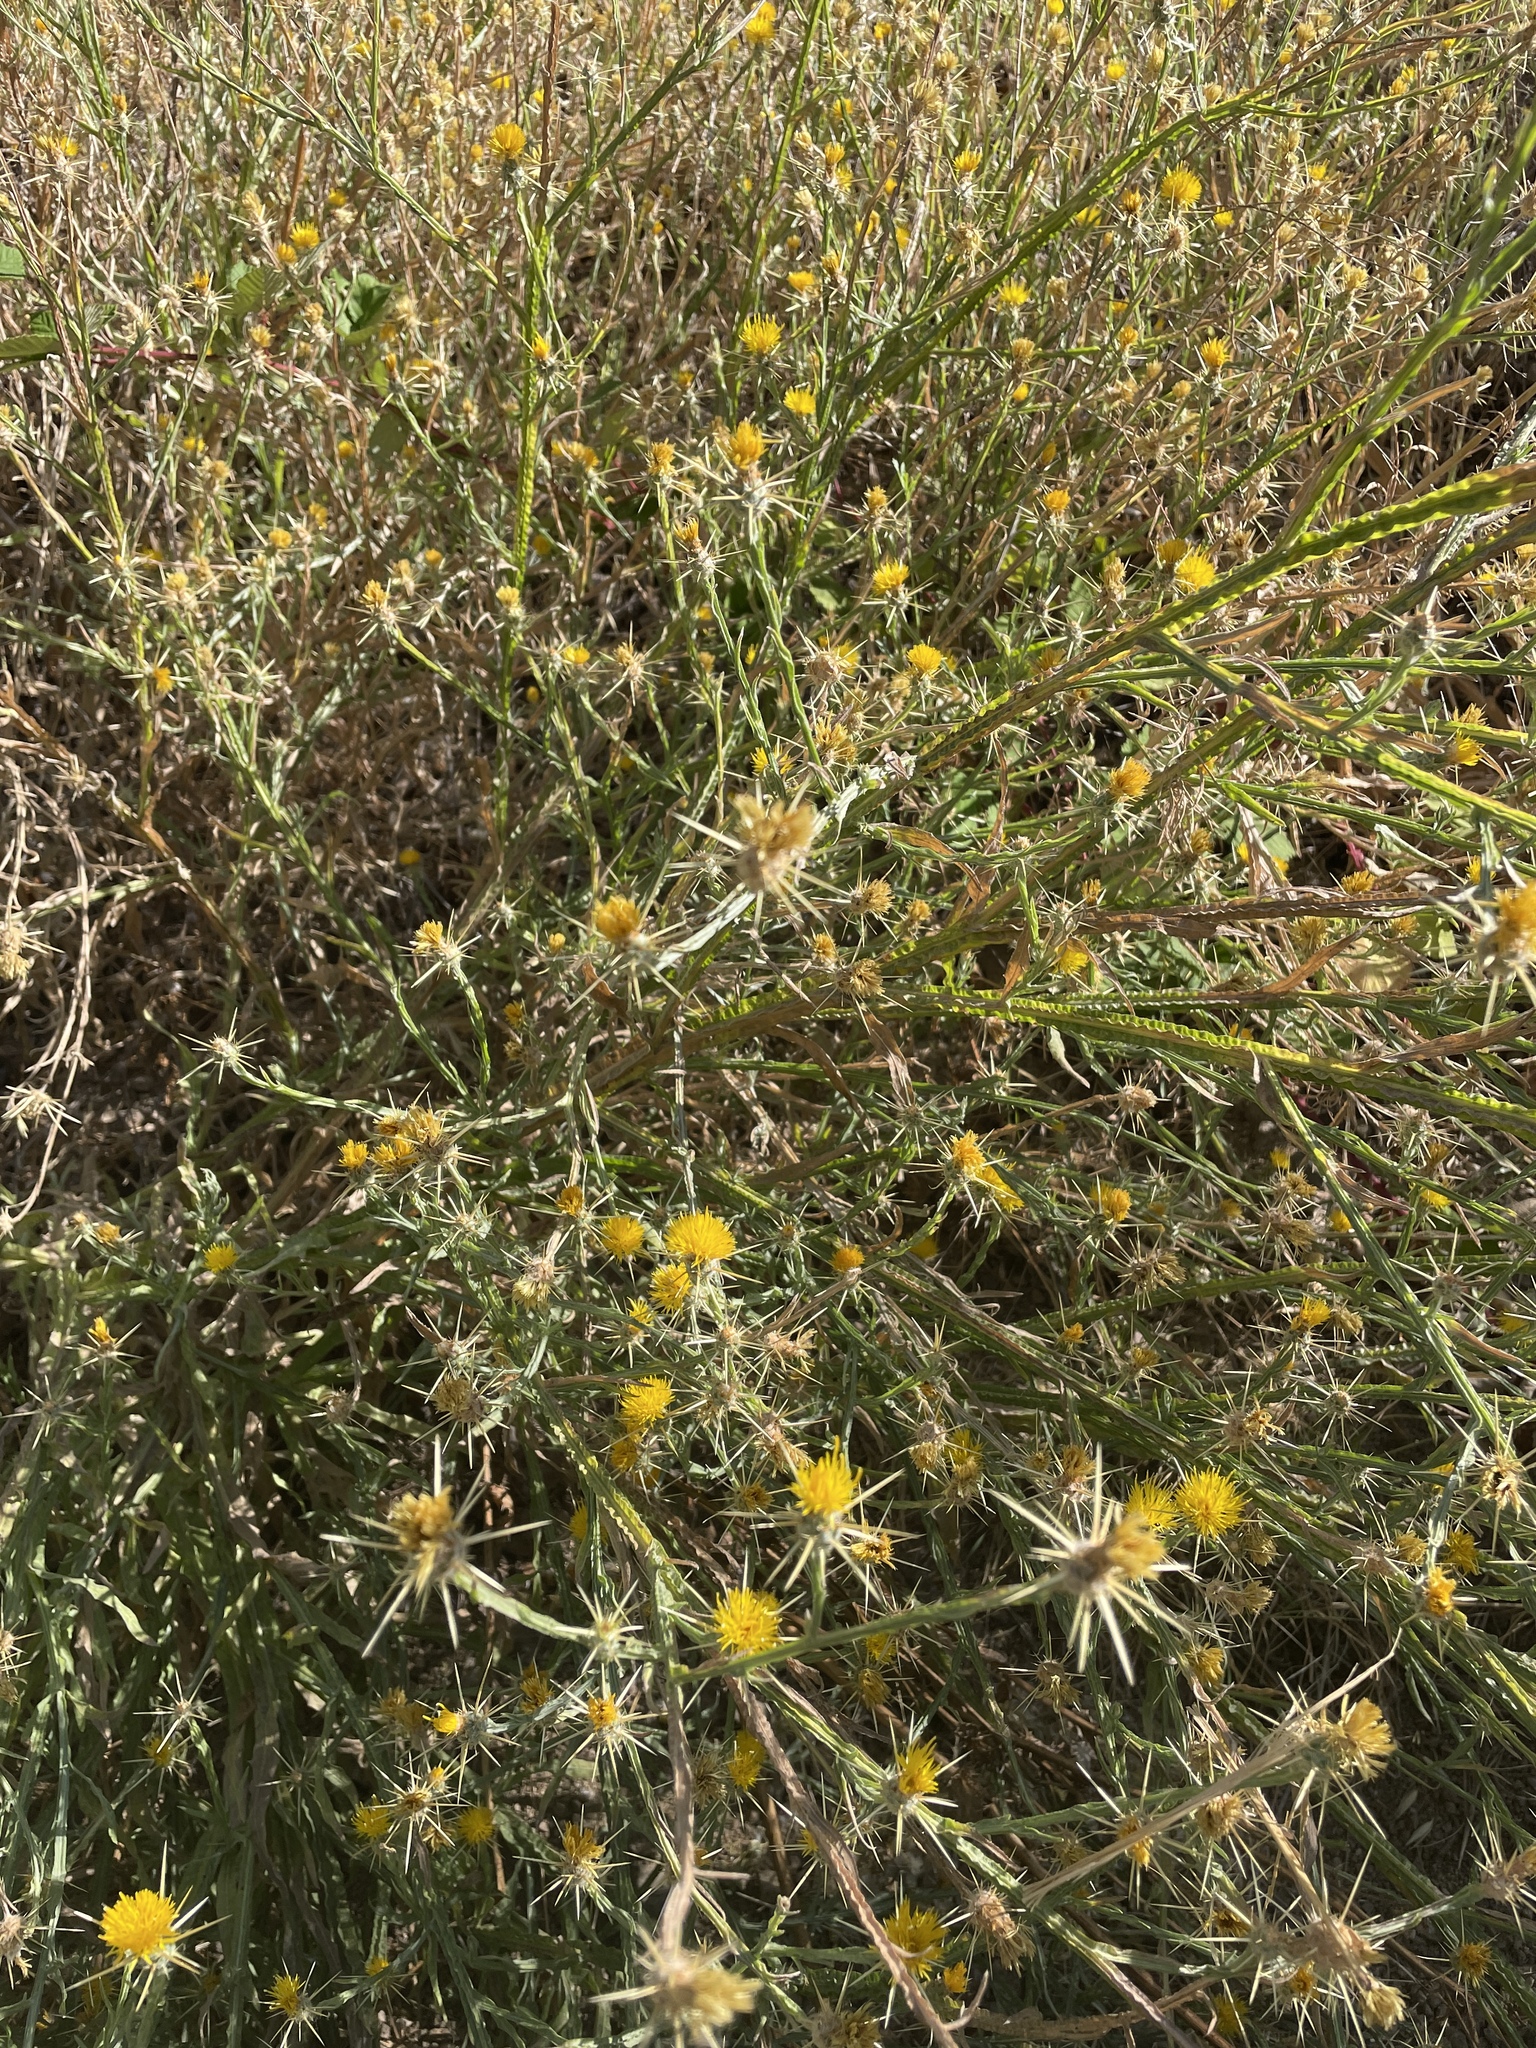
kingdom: Plantae
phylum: Tracheophyta
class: Magnoliopsida
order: Asterales
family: Asteraceae
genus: Centaurea
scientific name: Centaurea solstitialis
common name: Yellow star-thistle
